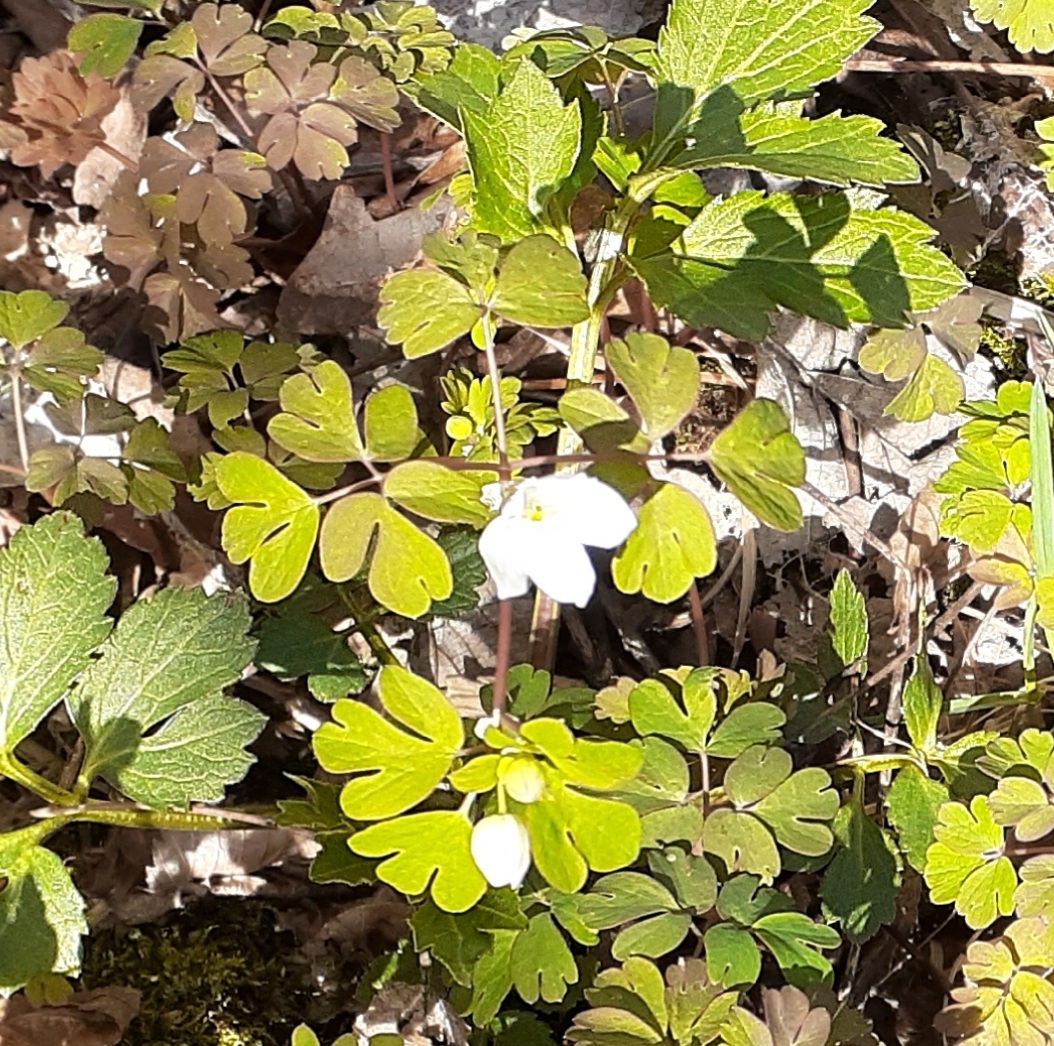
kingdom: Plantae
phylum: Tracheophyta
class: Magnoliopsida
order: Ranunculales
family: Ranunculaceae
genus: Enemion
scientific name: Enemion biternatum
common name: Eastern false rue-anemone
